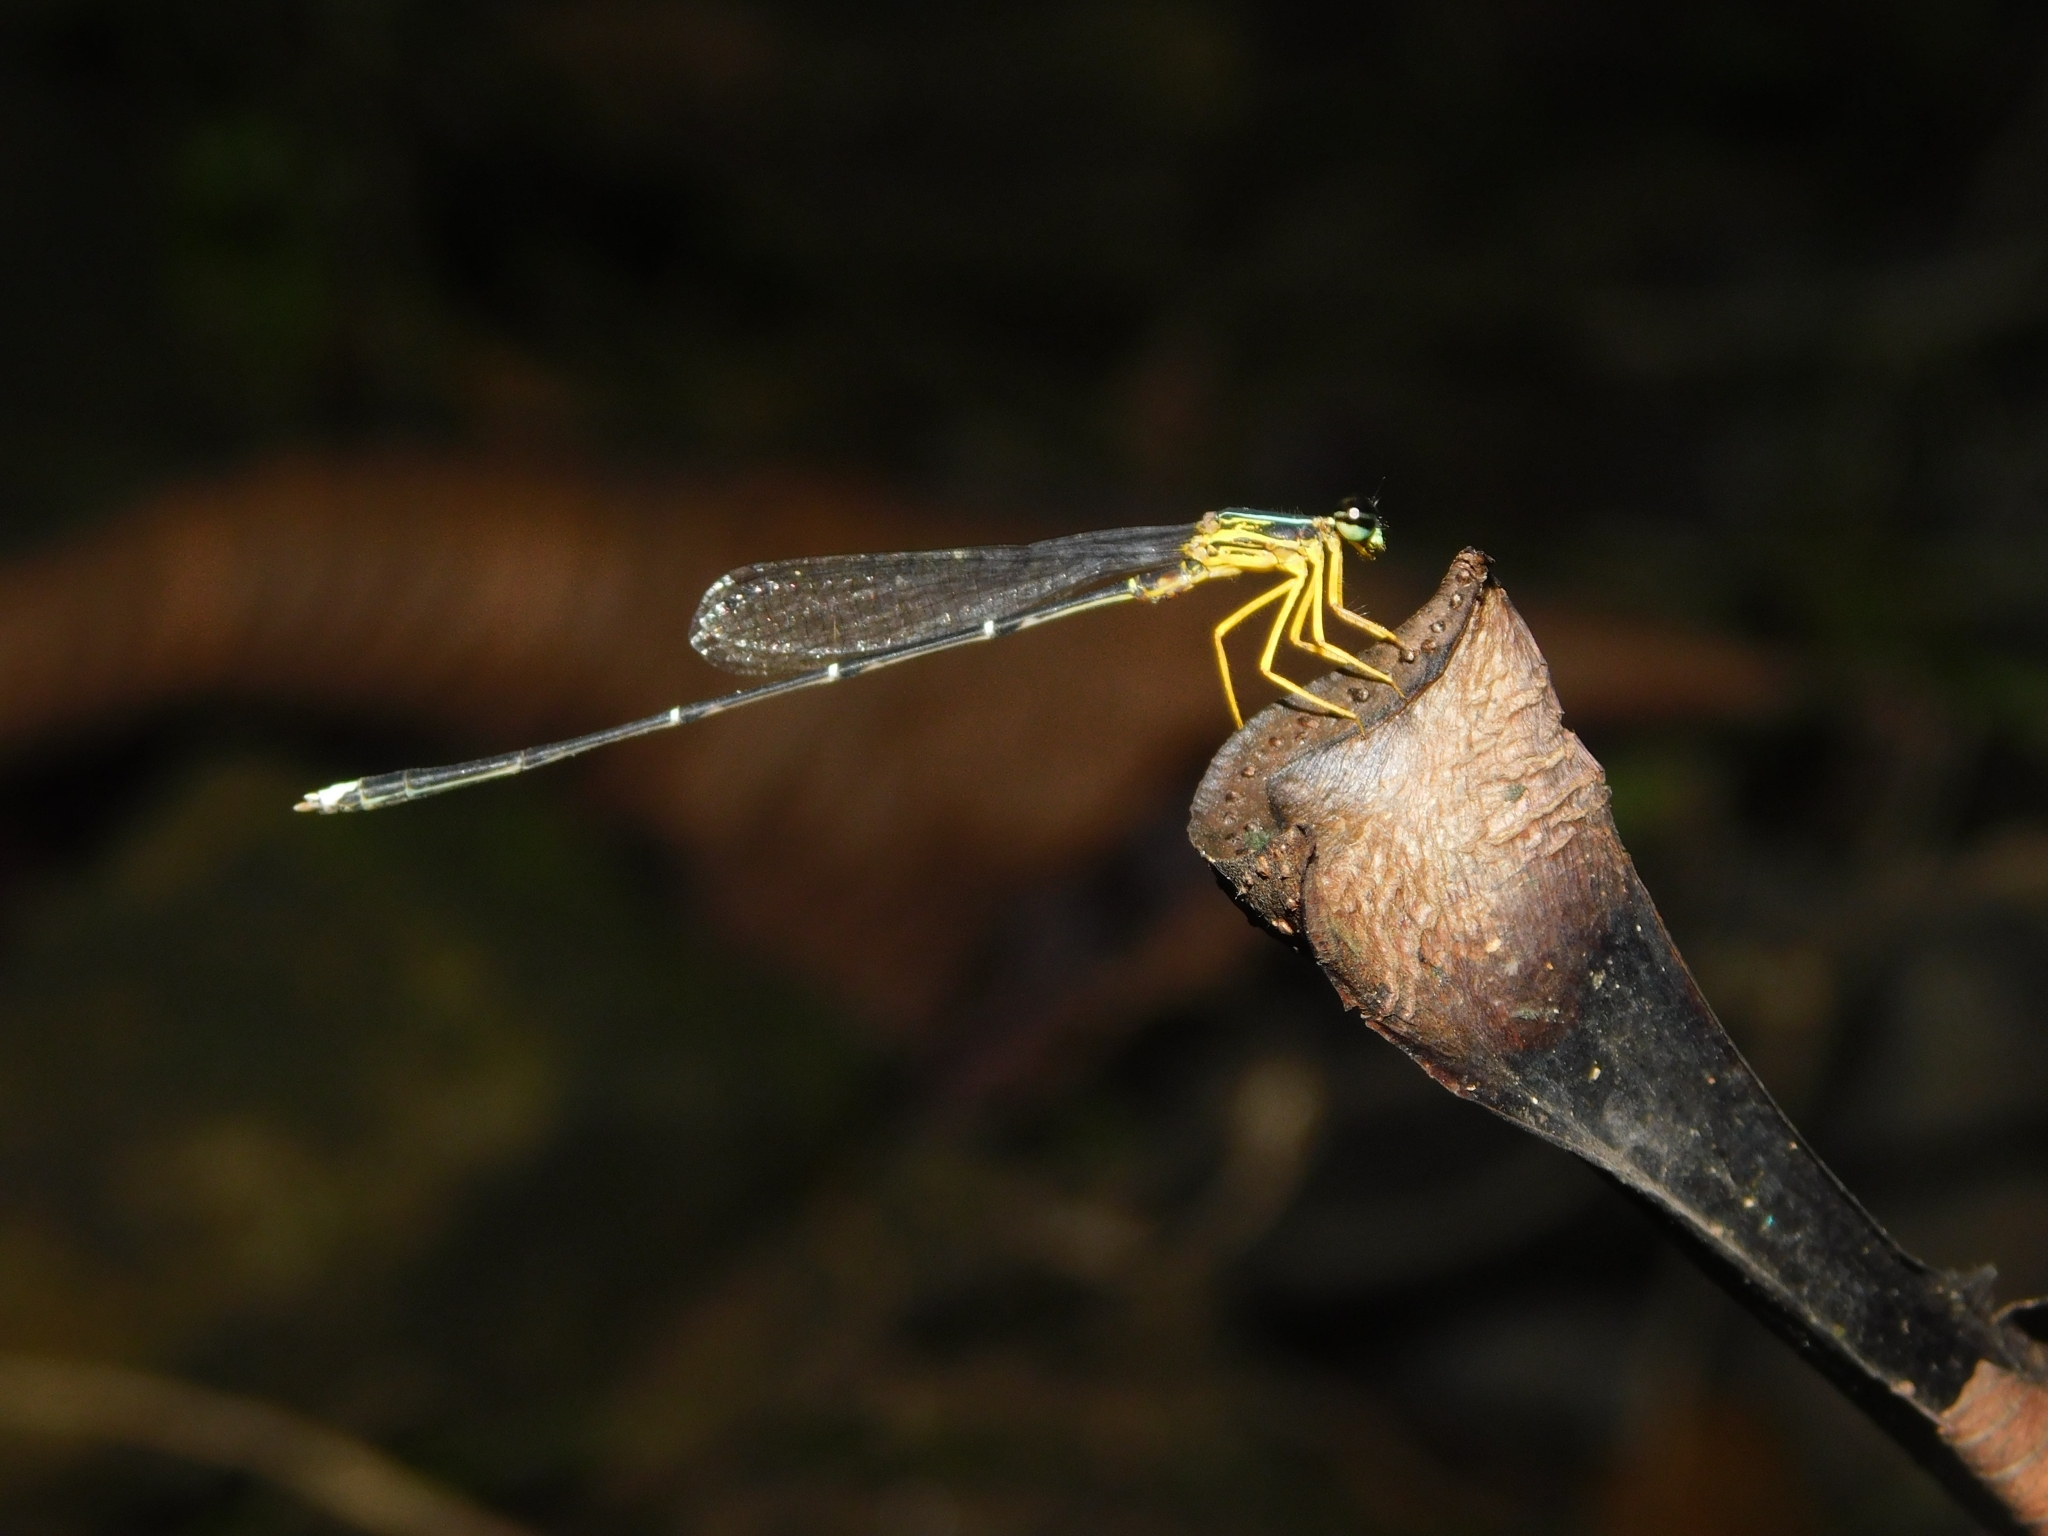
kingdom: Animalia
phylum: Arthropoda
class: Insecta
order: Odonata
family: Platycnemididae
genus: Copera
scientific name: Copera vittata
